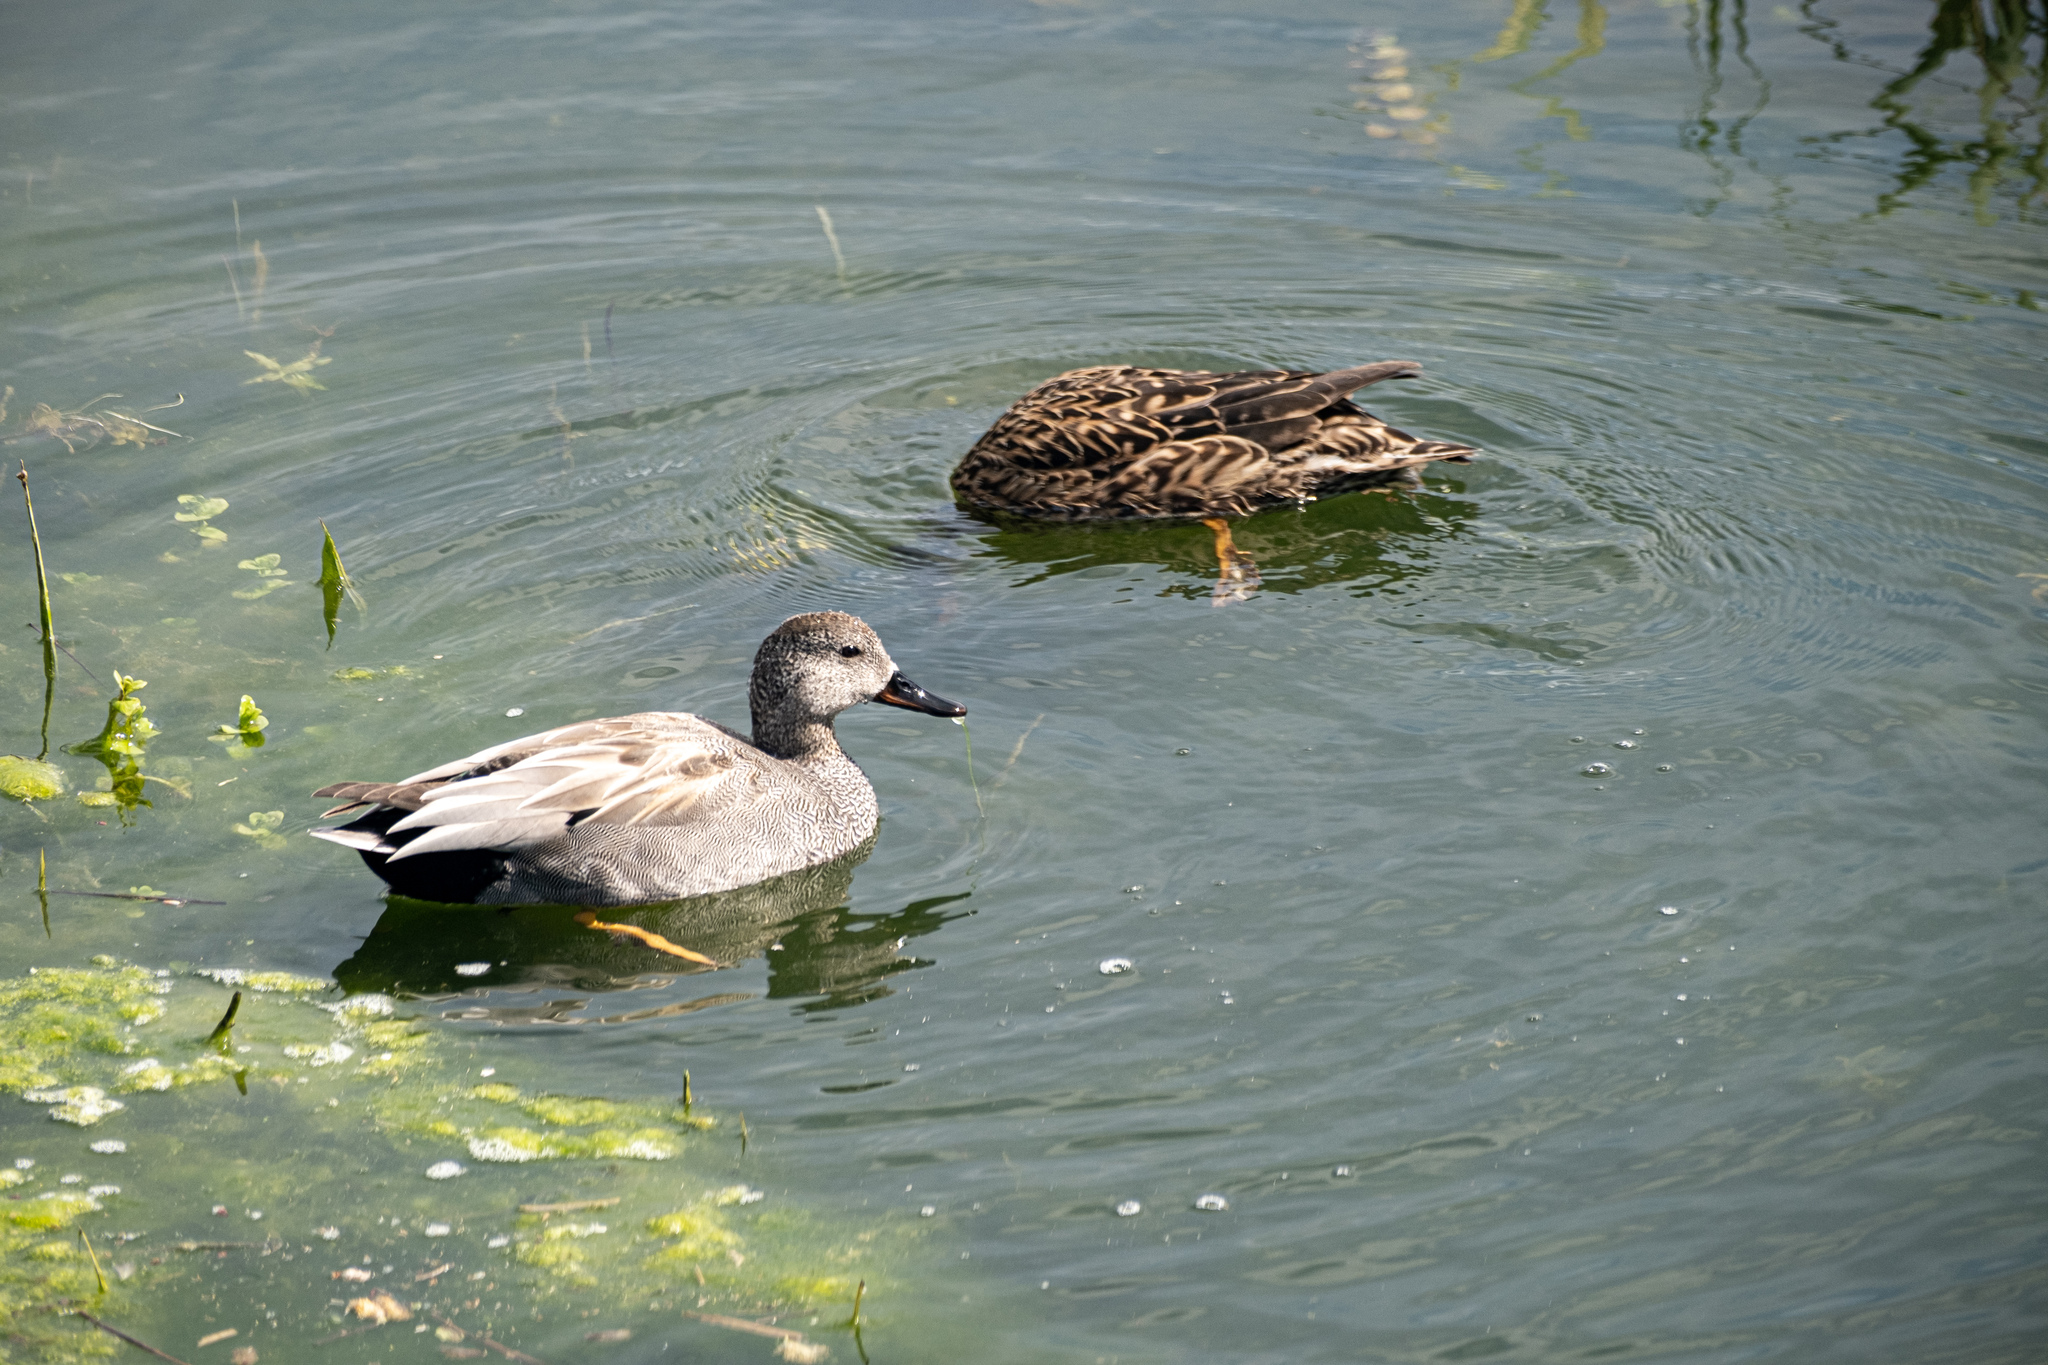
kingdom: Animalia
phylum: Chordata
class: Aves
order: Anseriformes
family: Anatidae
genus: Mareca
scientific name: Mareca strepera
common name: Gadwall
